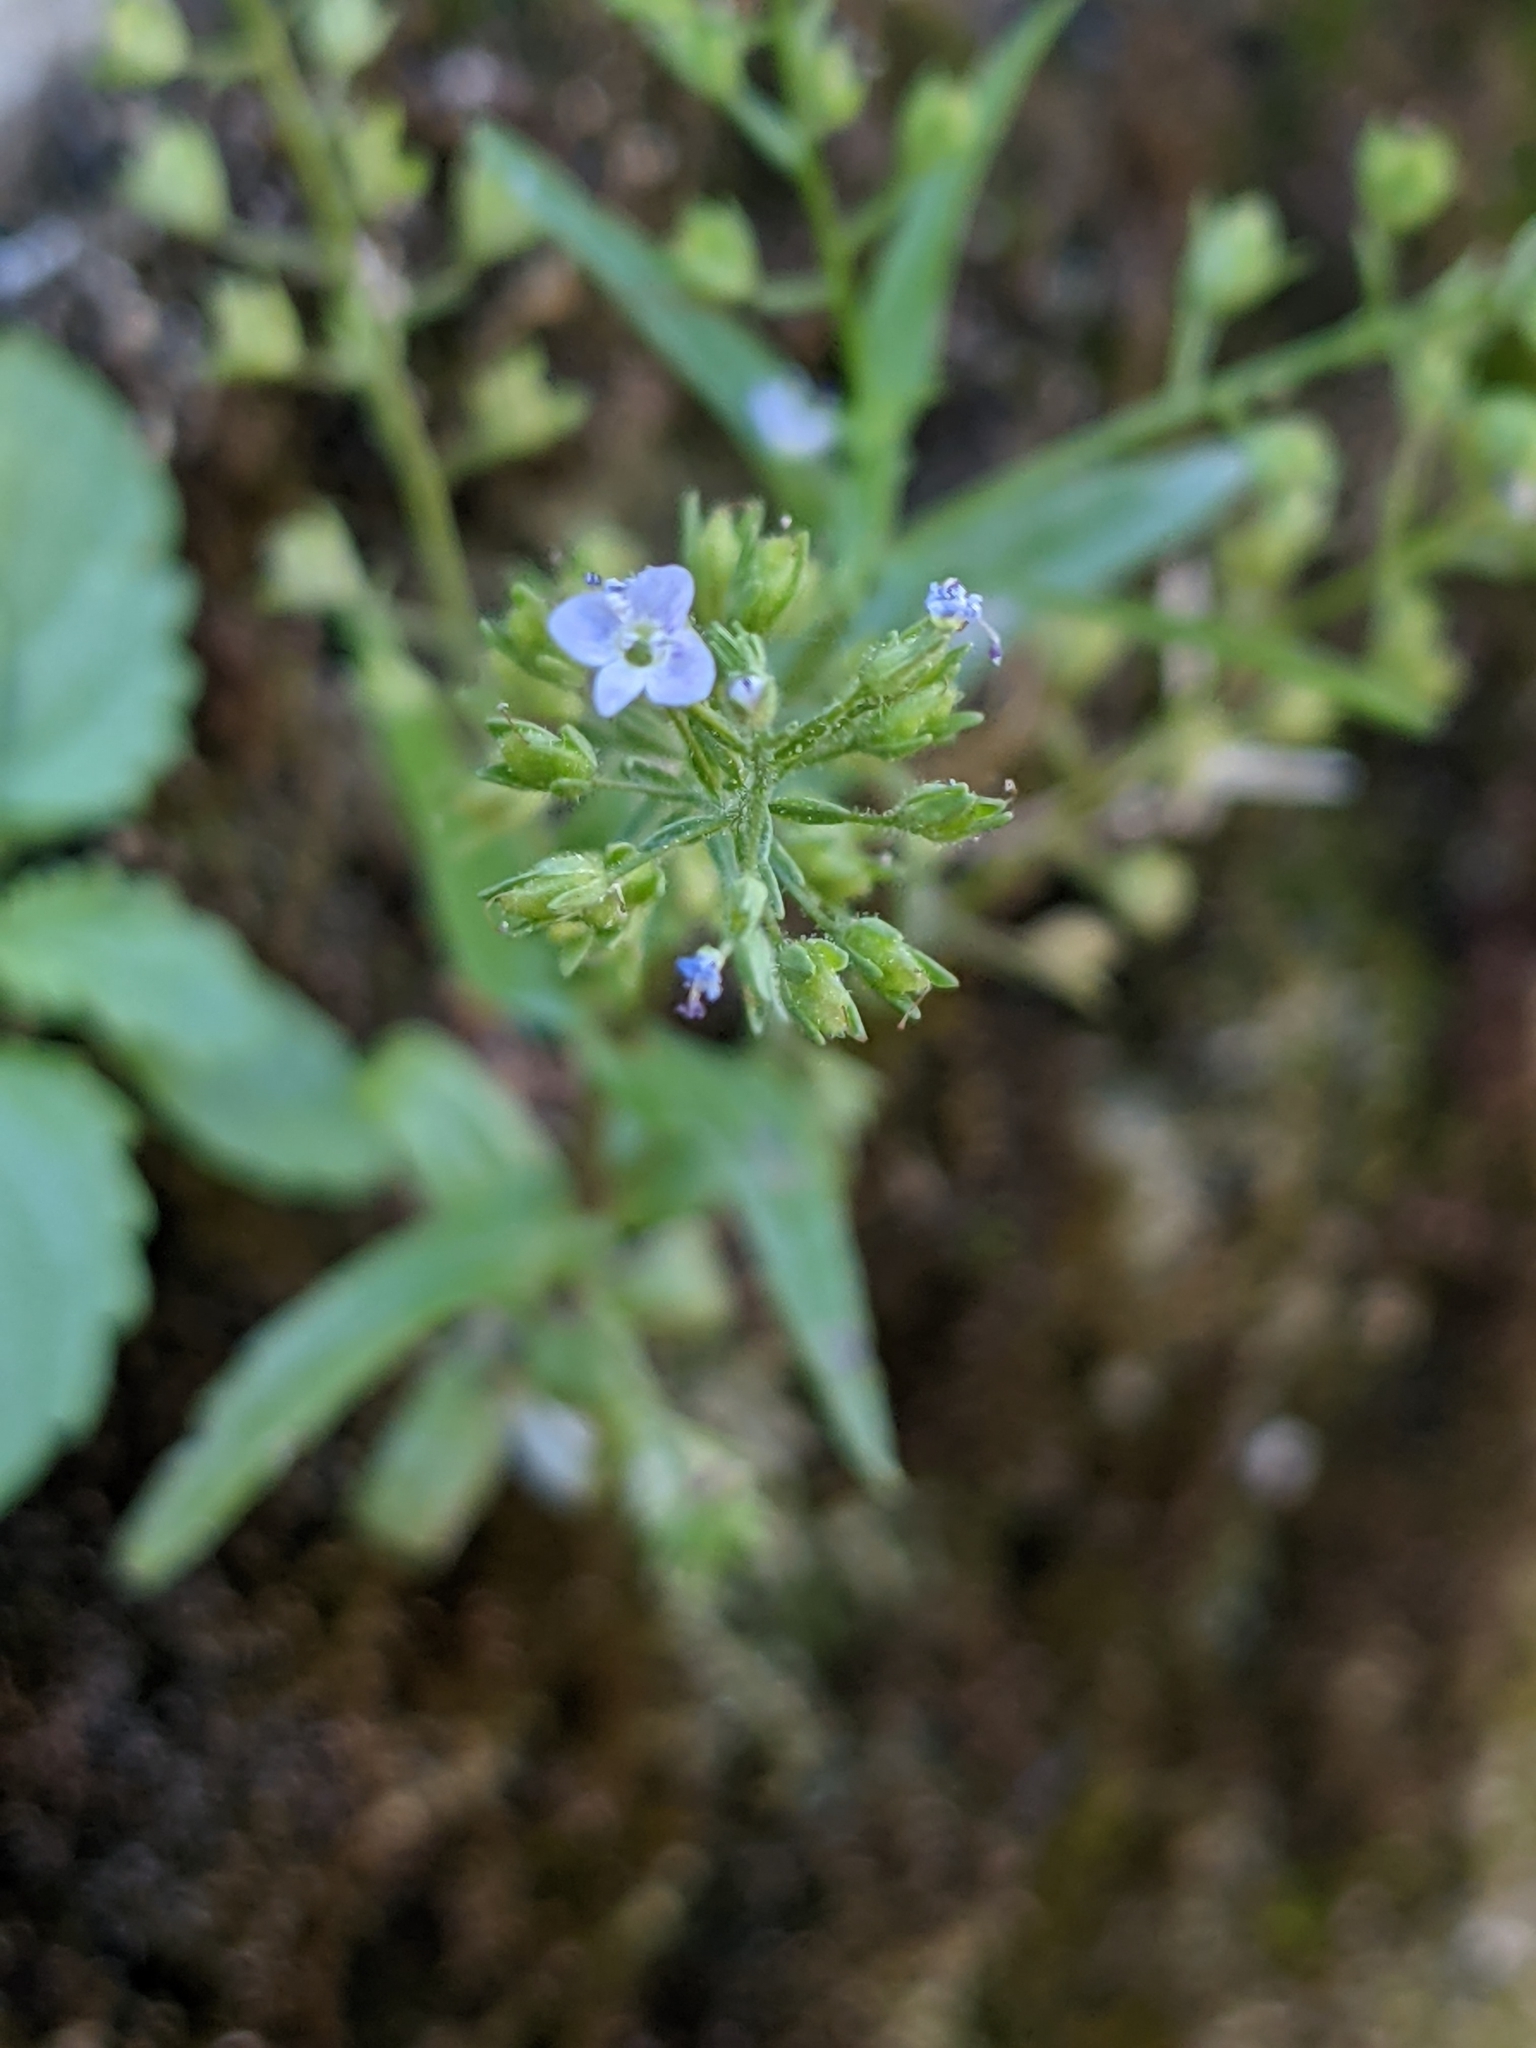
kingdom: Plantae
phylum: Tracheophyta
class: Magnoliopsida
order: Lamiales
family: Plantaginaceae
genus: Veronica
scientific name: Veronica anagallis-aquatica
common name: Water speedwell
